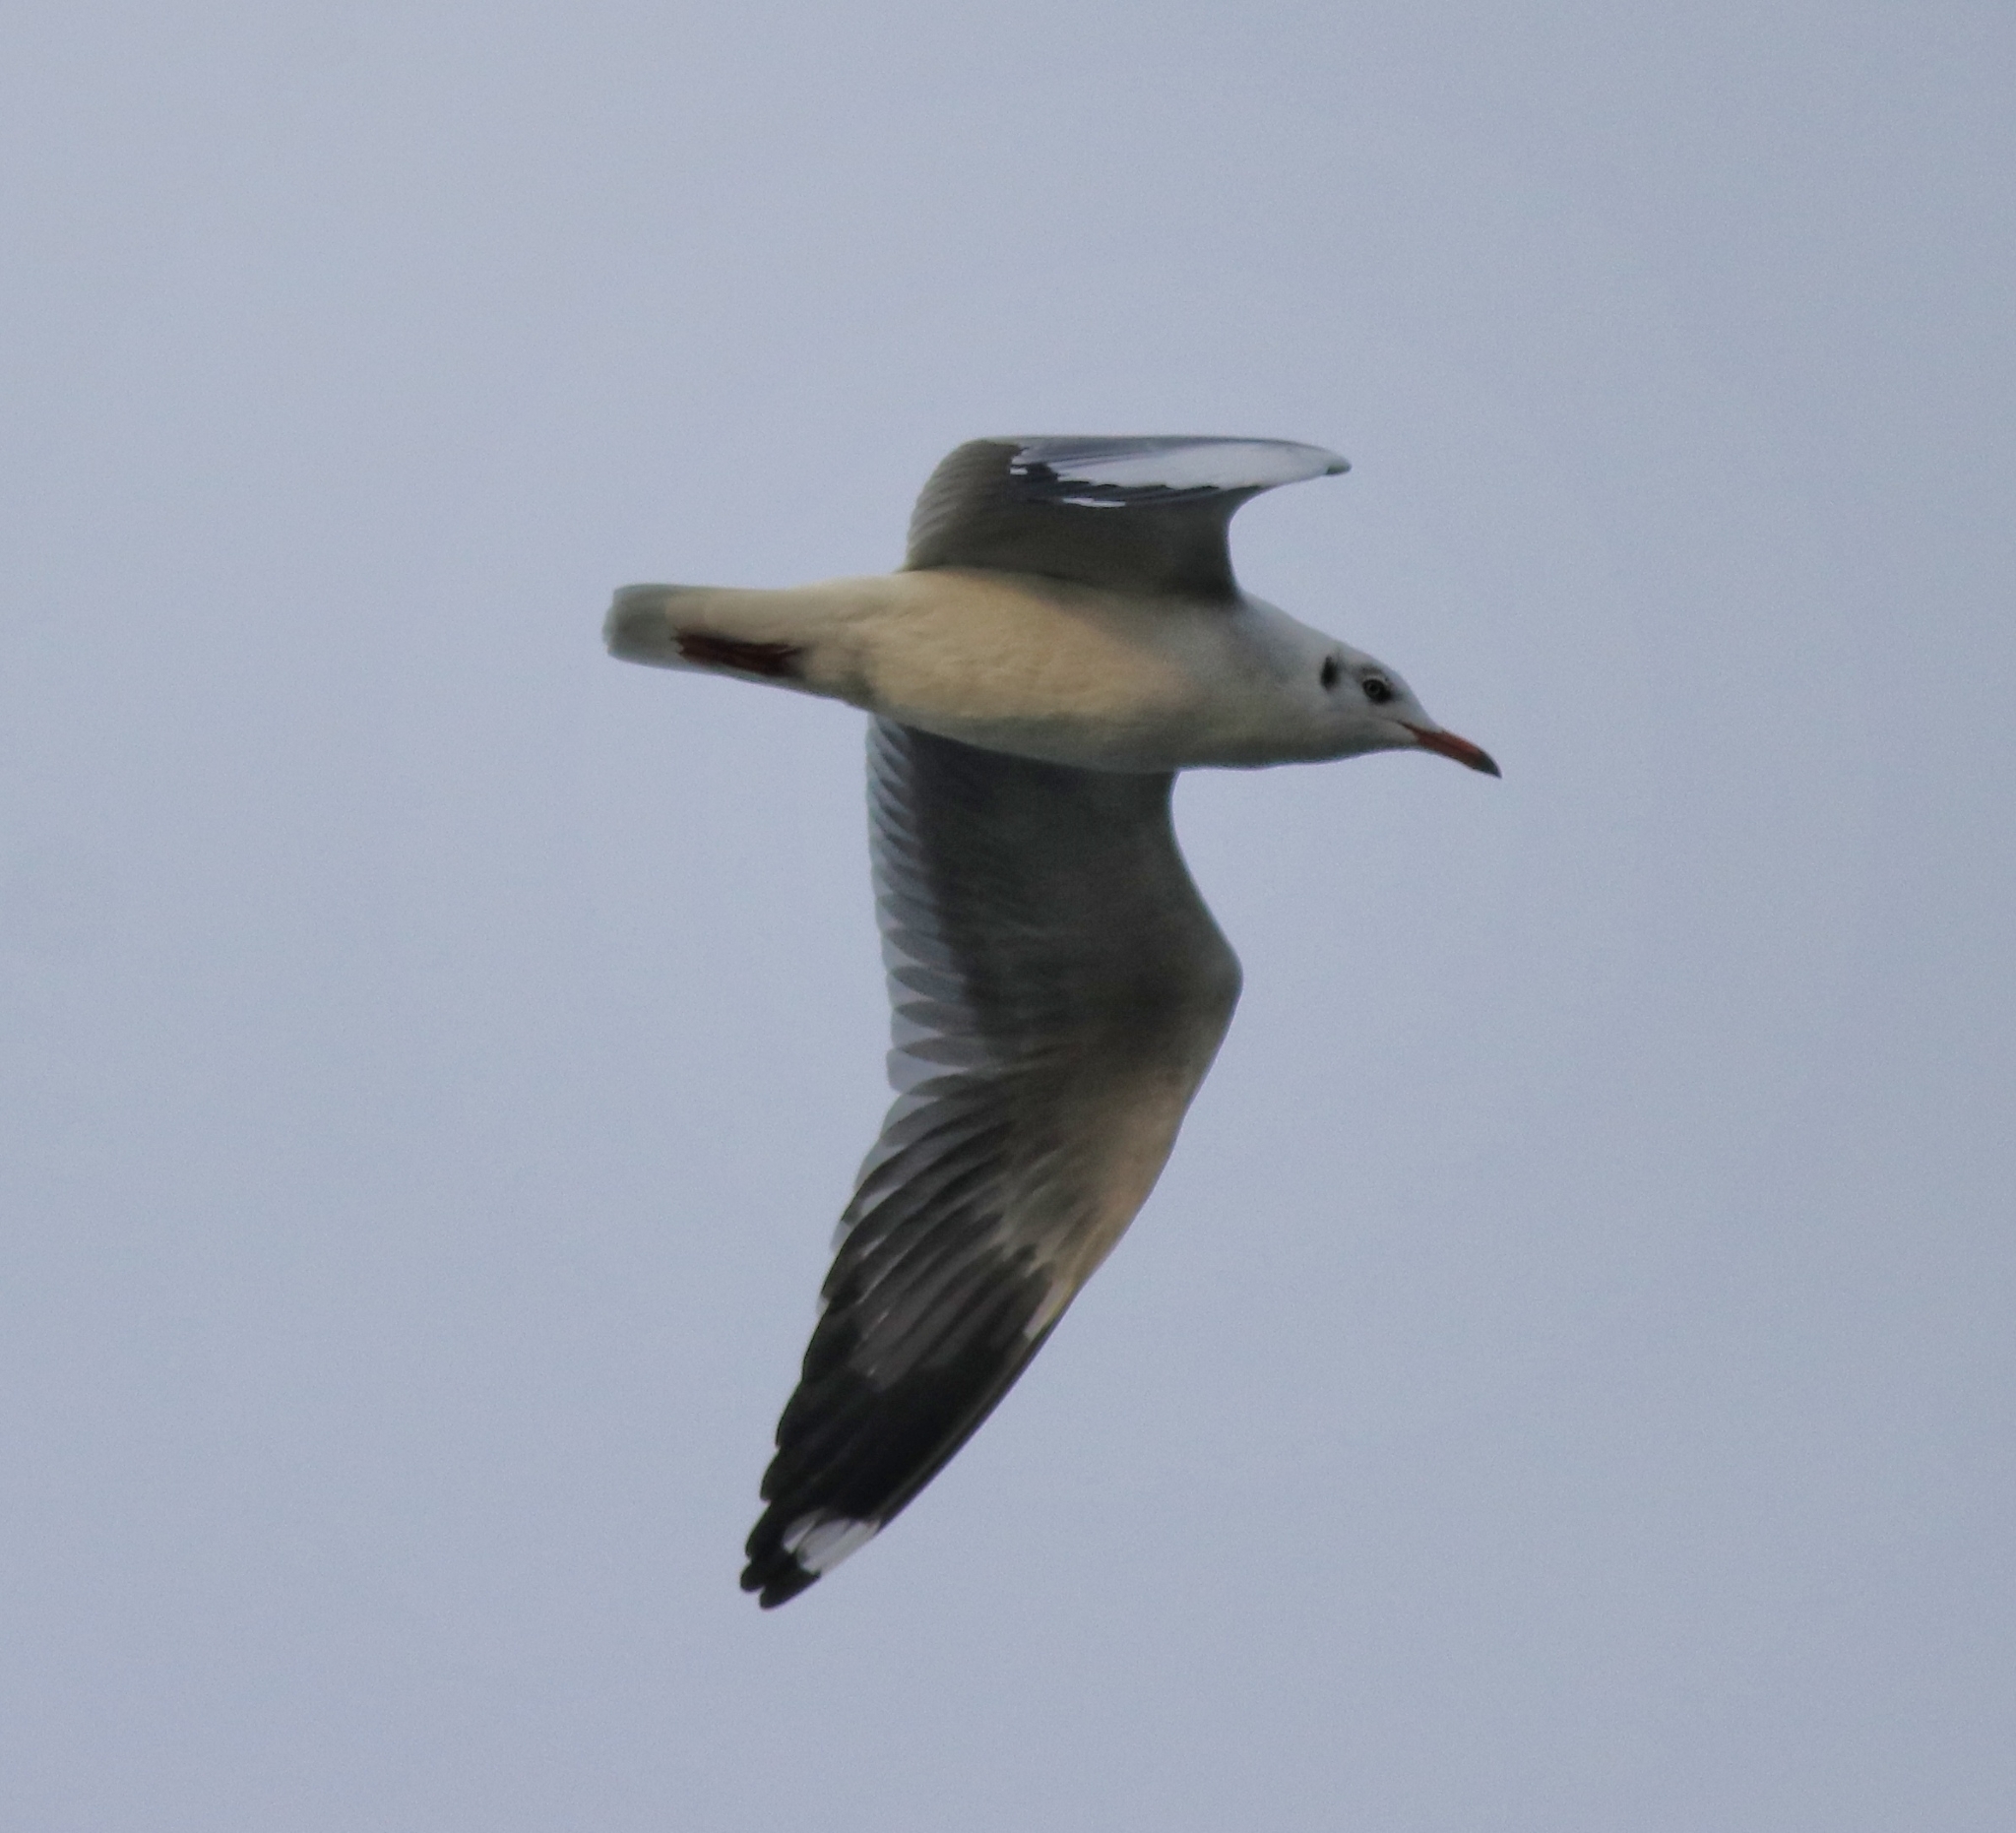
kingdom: Animalia
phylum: Chordata
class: Aves
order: Charadriiformes
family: Laridae
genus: Chroicocephalus
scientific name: Chroicocephalus brunnicephalus
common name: Brown-headed gull
